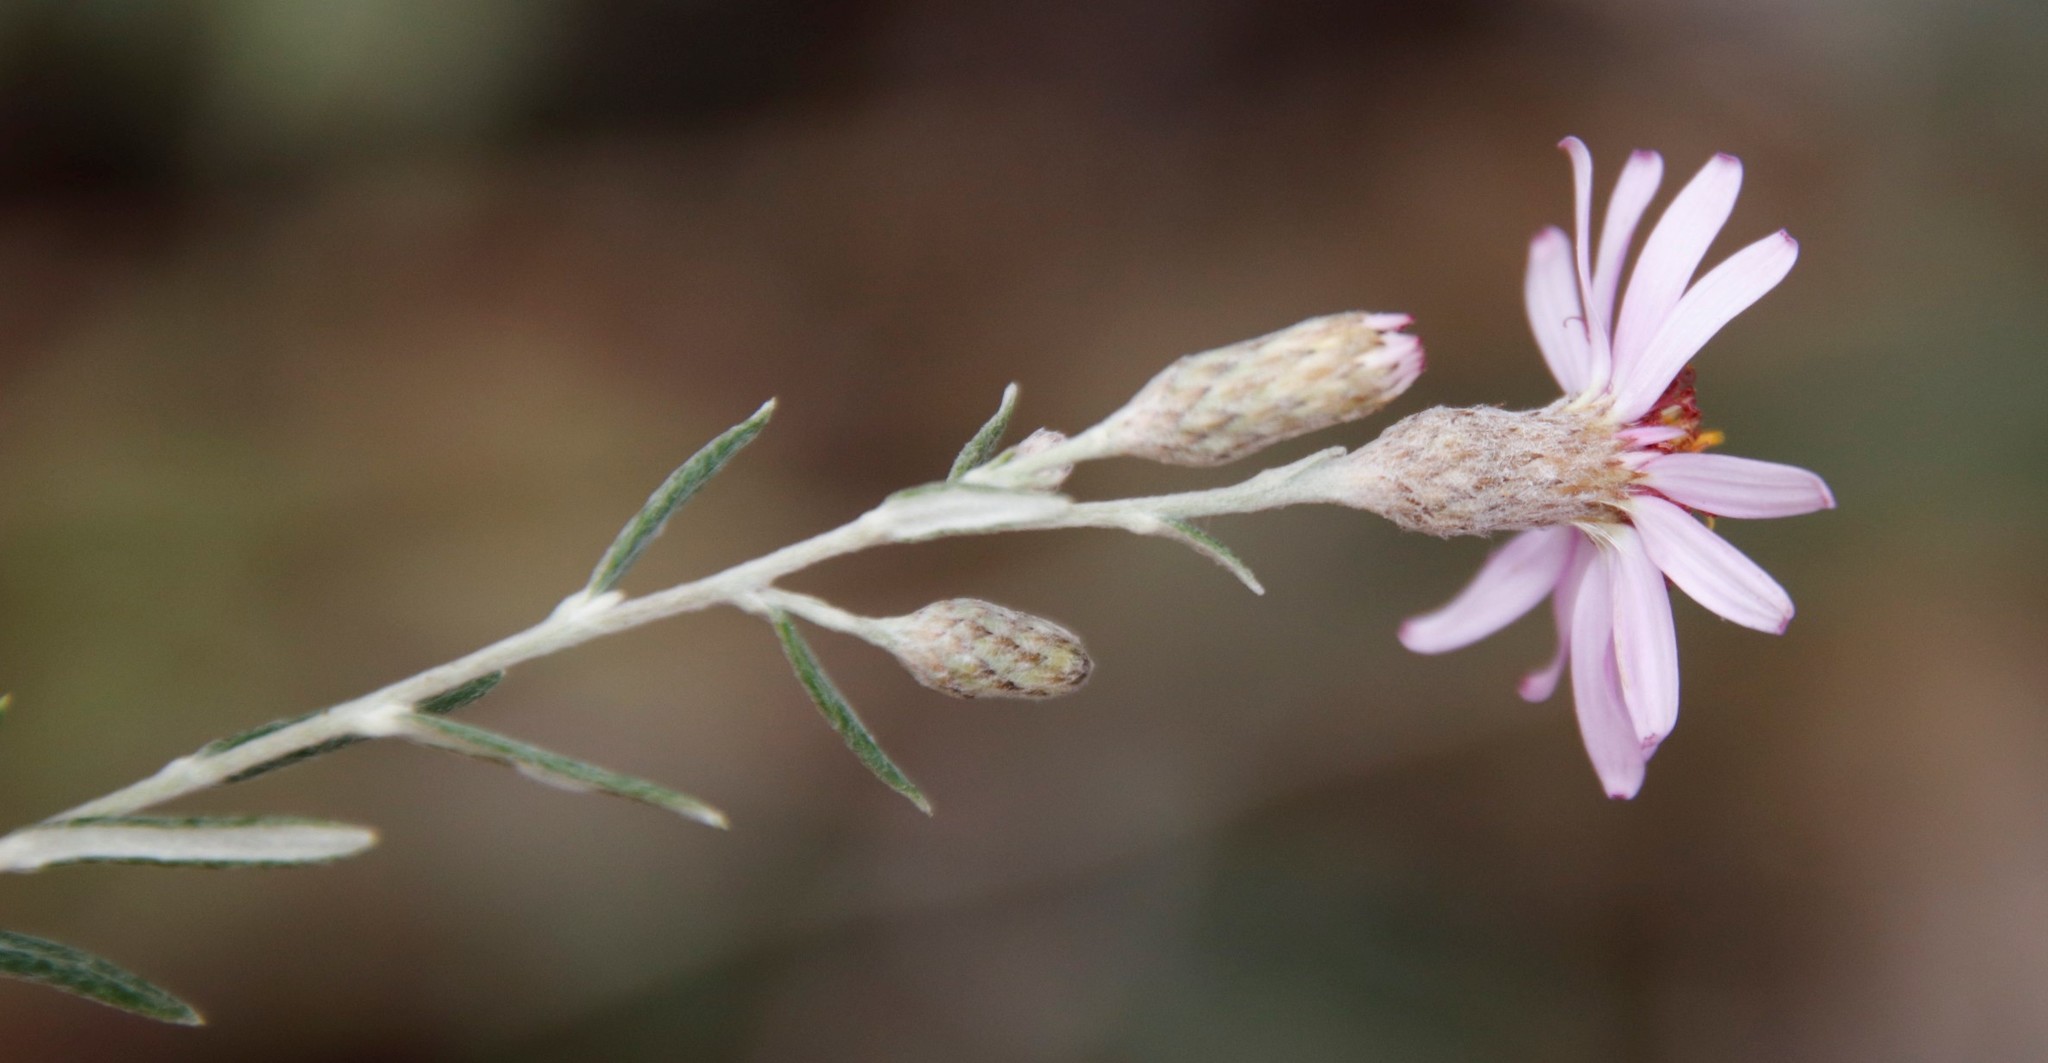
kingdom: Plantae
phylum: Tracheophyta
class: Magnoliopsida
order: Asterales
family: Asteraceae
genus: Athrixia
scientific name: Athrixia elata
